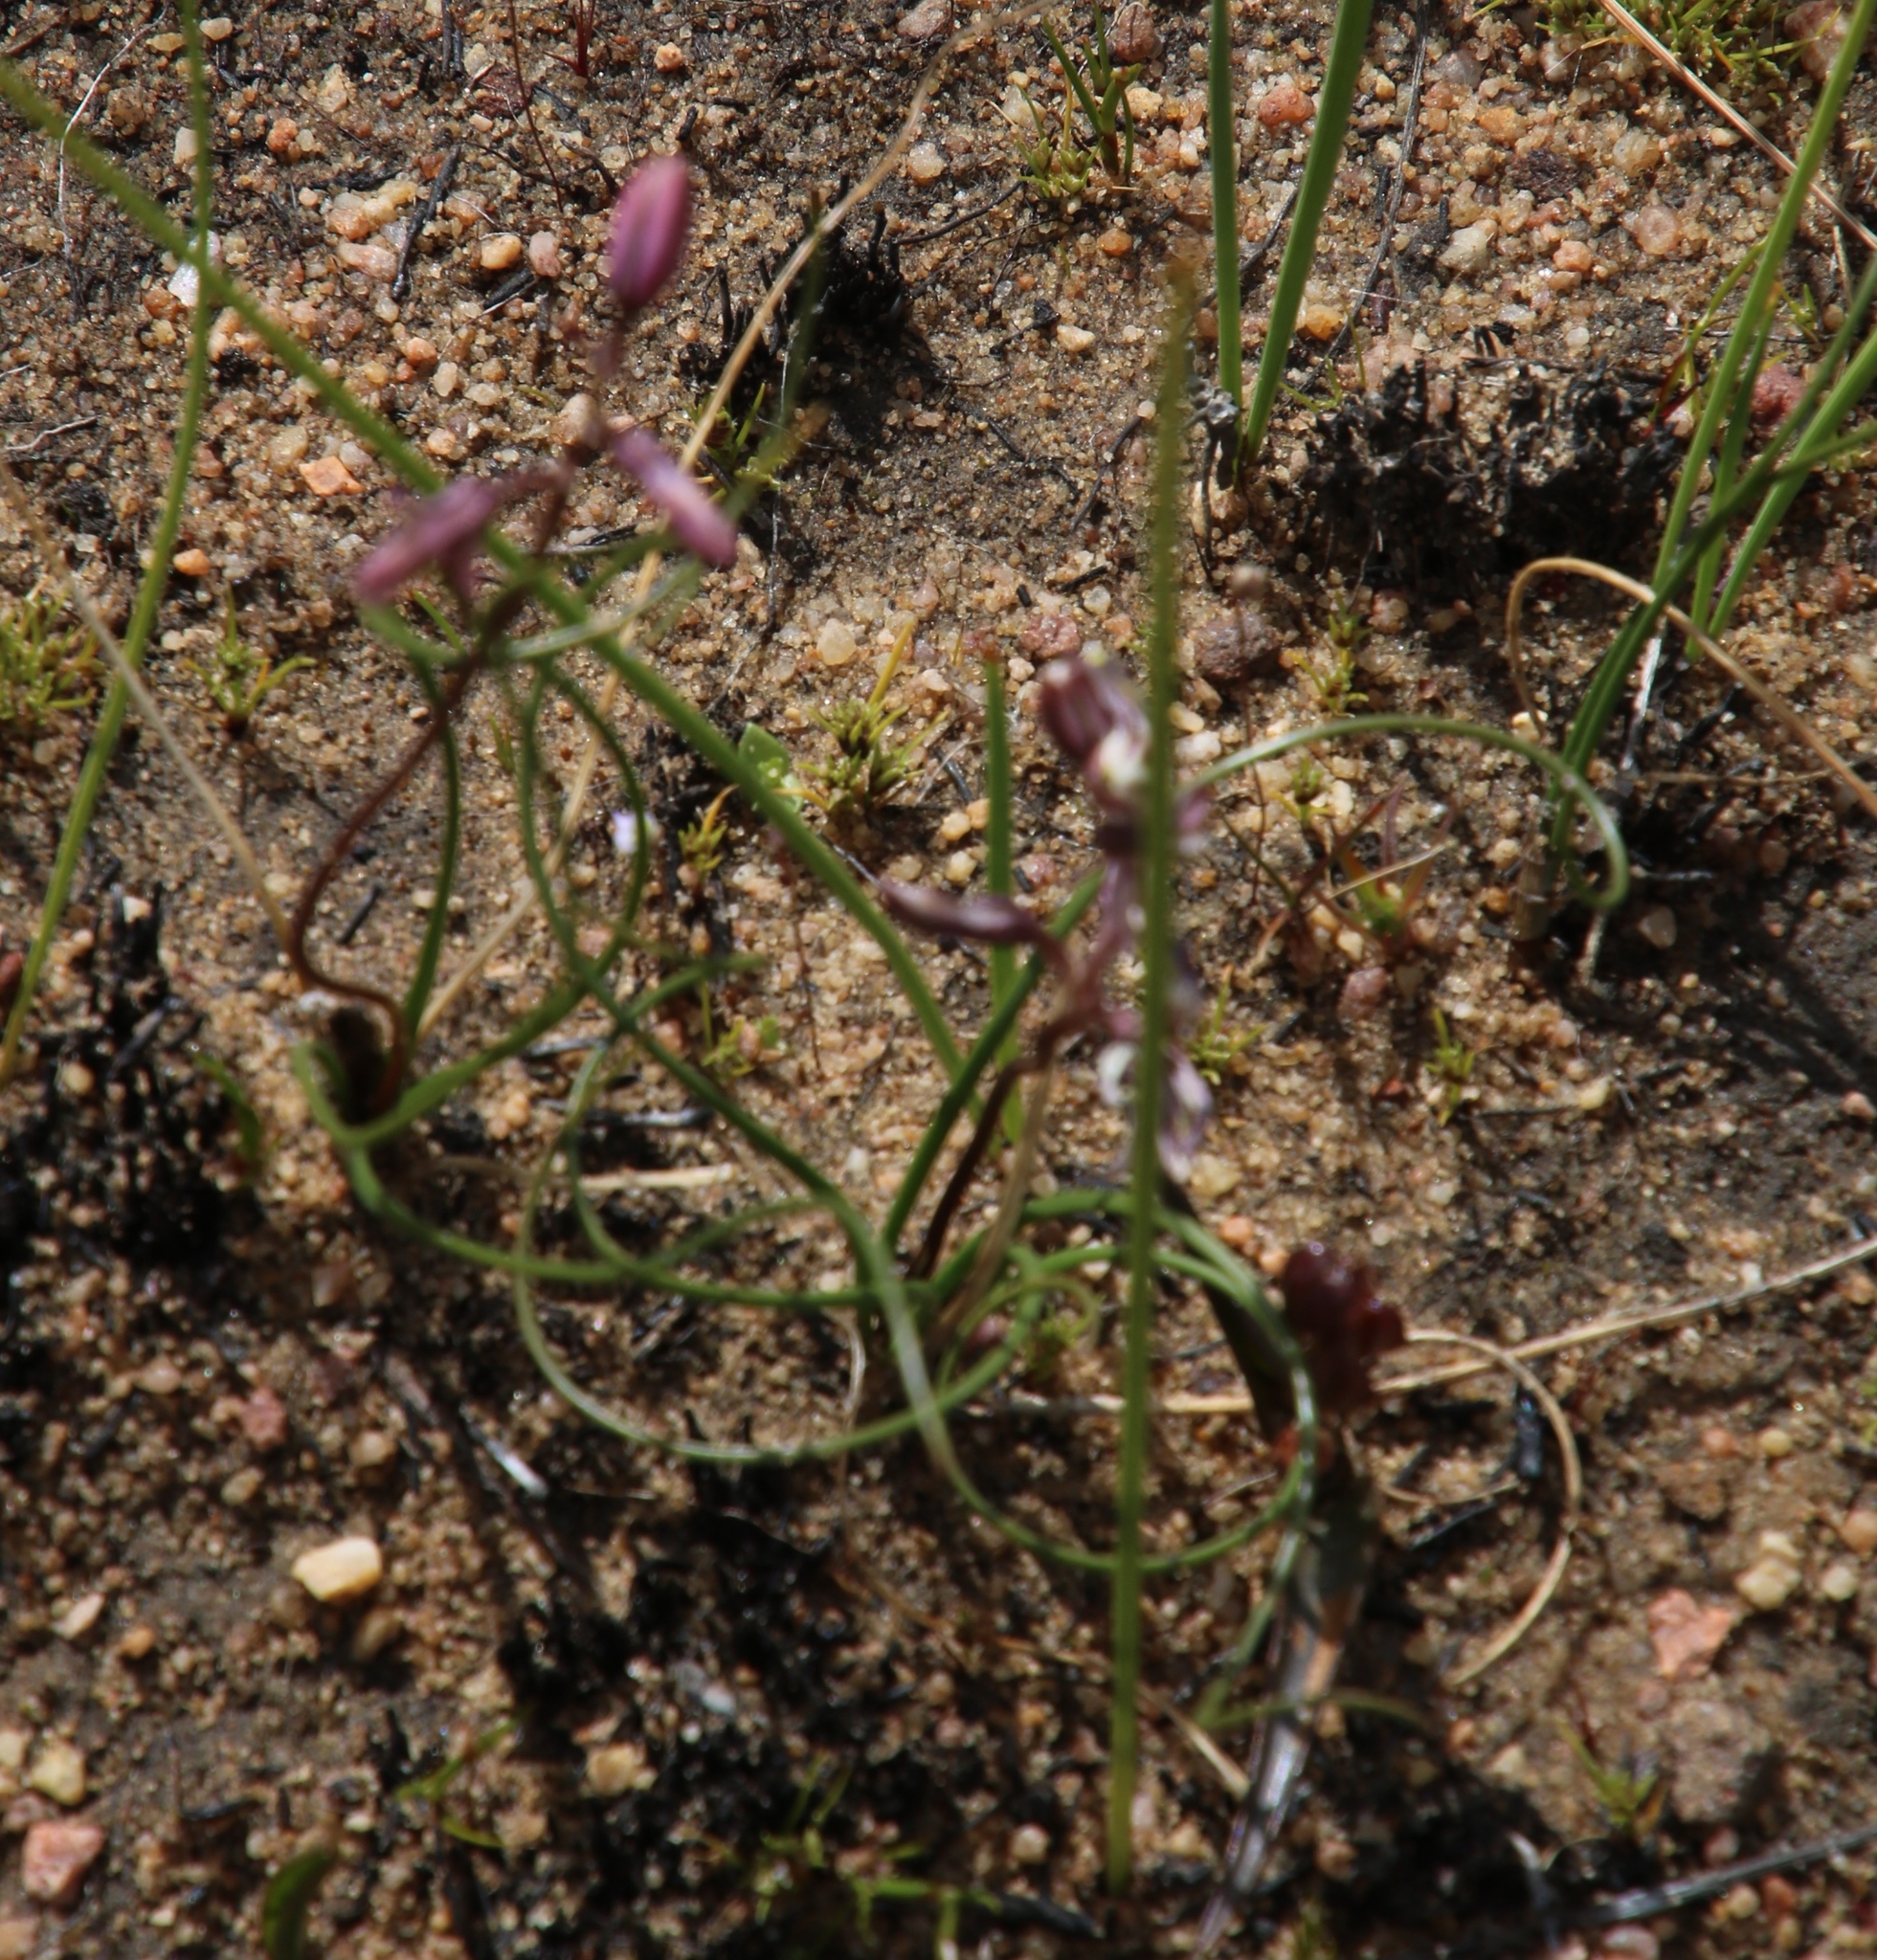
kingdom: Plantae
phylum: Tracheophyta
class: Liliopsida
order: Asparagales
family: Asparagaceae
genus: Drimia
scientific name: Drimia fragrans
